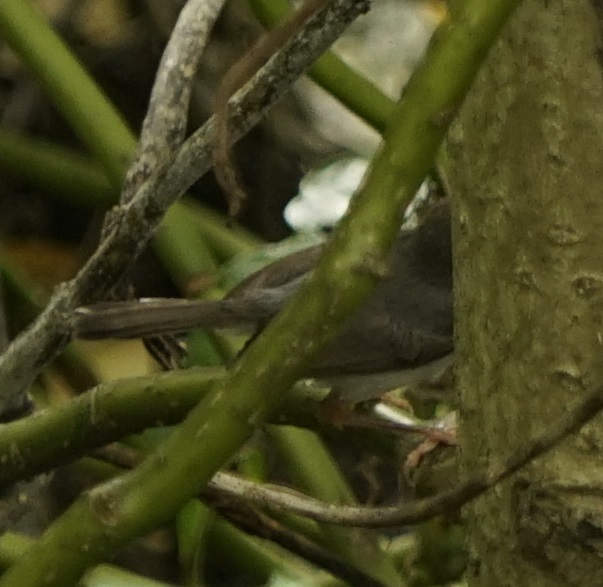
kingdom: Animalia
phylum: Chordata
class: Aves
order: Passeriformes
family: Cisticolidae
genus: Orthotomus
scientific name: Orthotomus ruficeps
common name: Ashy tailorbird
